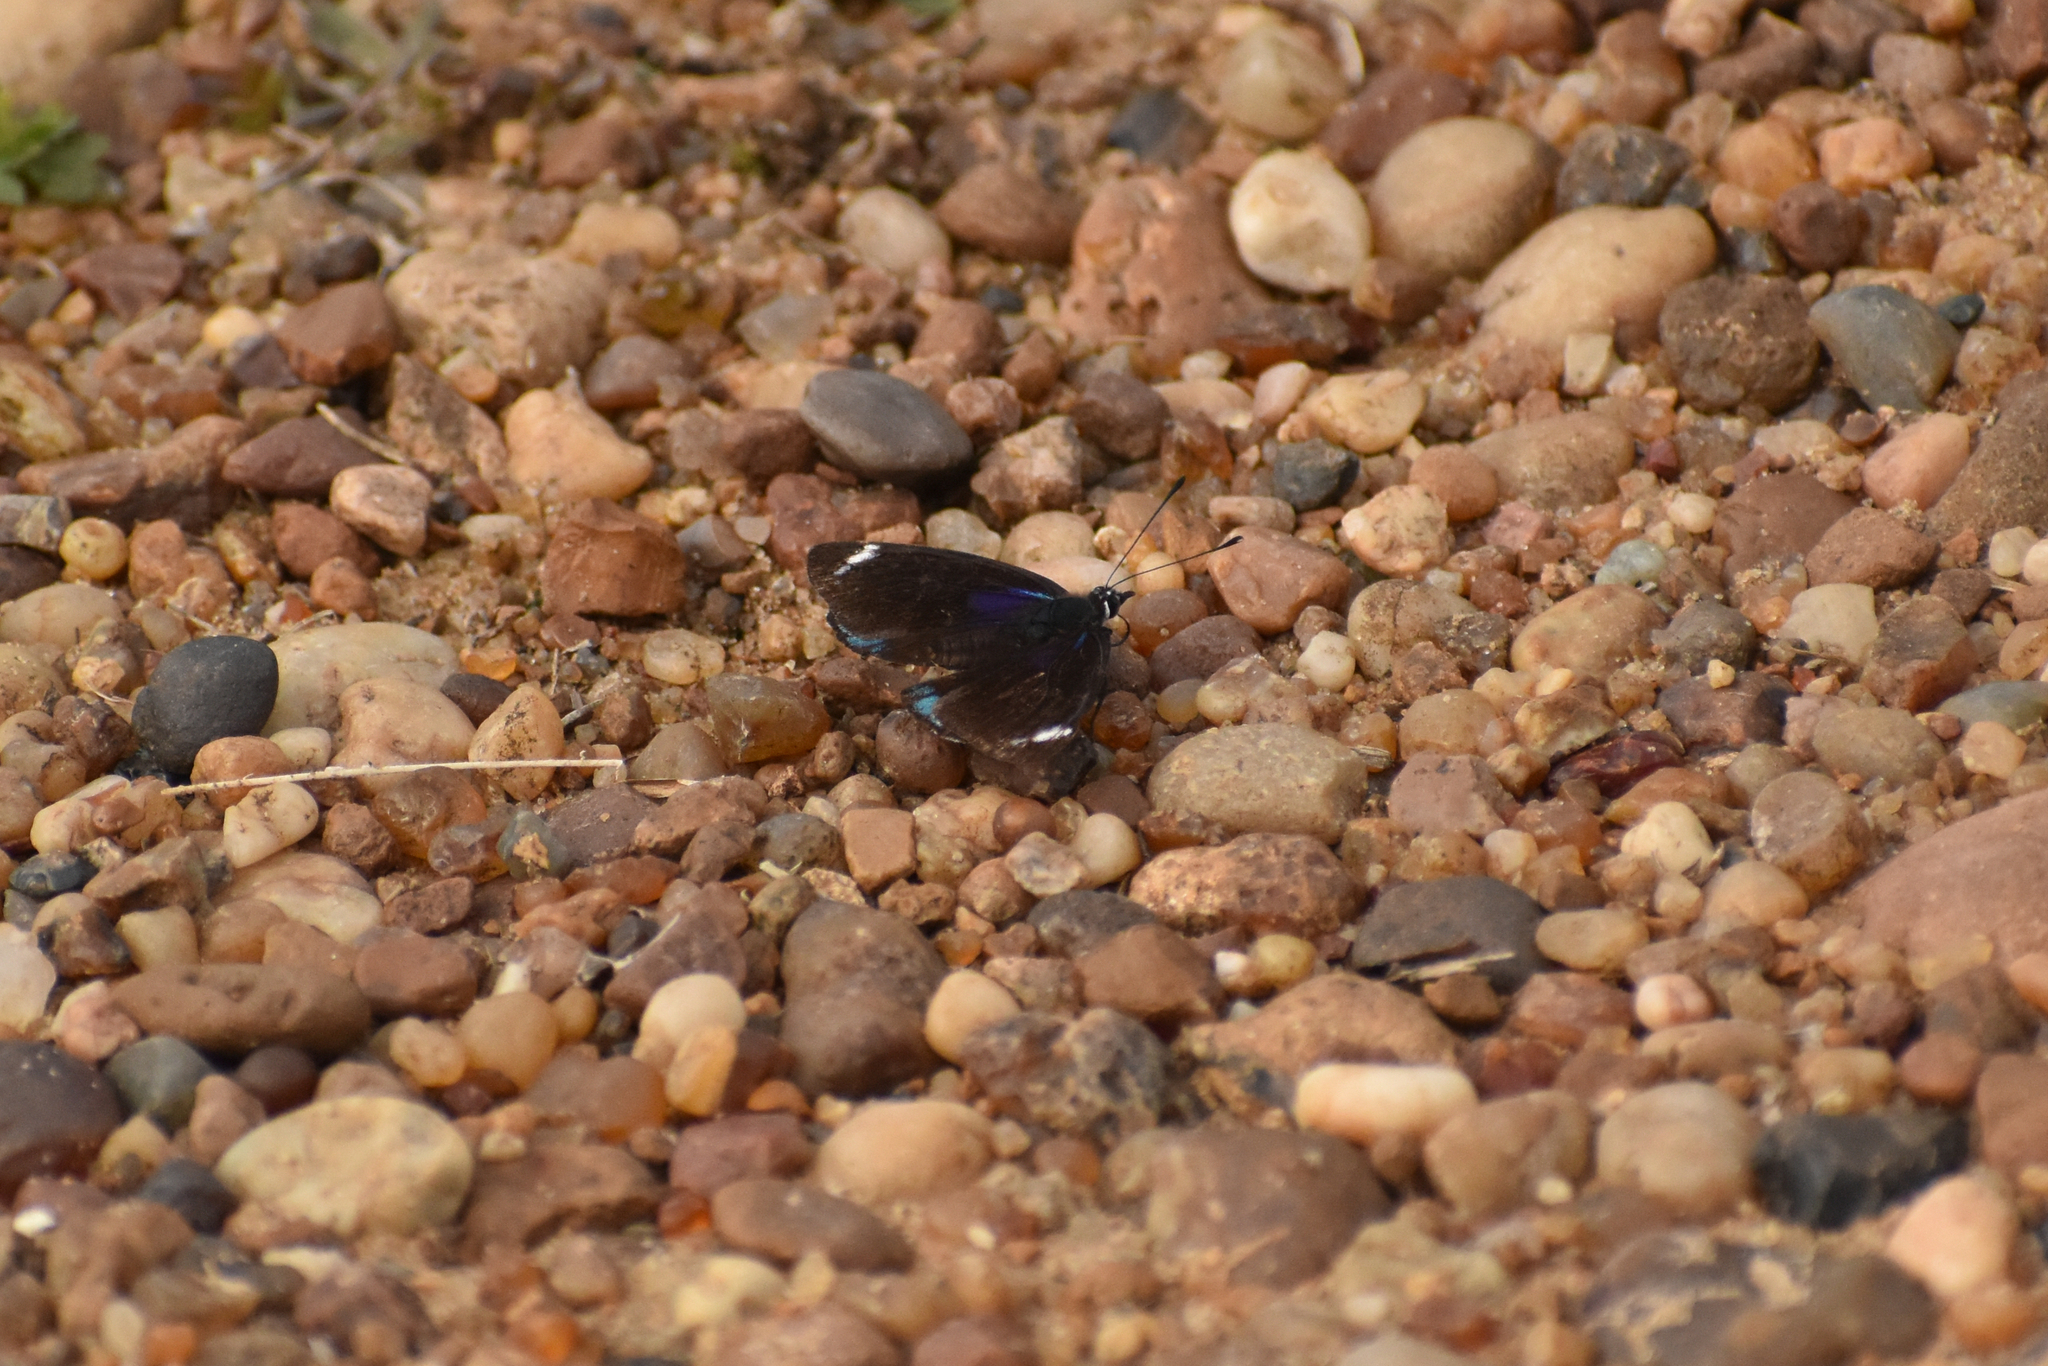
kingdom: Animalia
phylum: Arthropoda
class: Insecta
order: Lepidoptera
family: Nymphalidae
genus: Diaethria
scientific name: Diaethria candrena
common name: Number eighty
